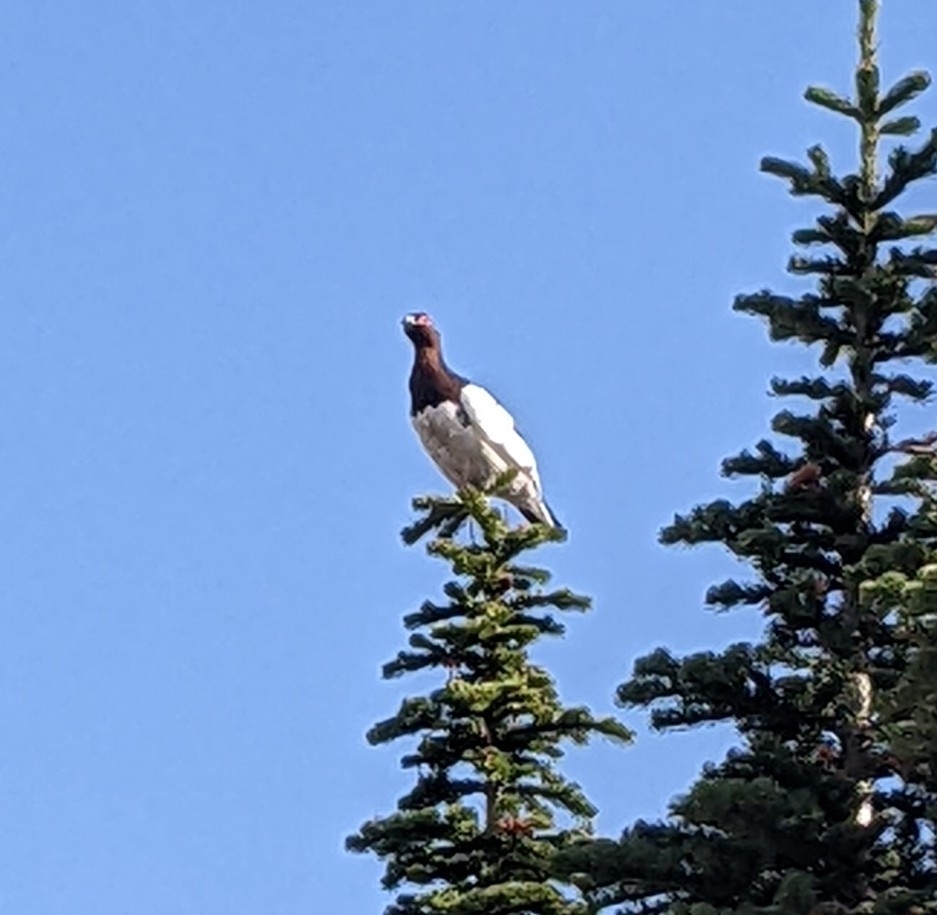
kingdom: Animalia
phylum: Chordata
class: Aves
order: Galliformes
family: Phasianidae
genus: Lagopus
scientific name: Lagopus lagopus
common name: Willow ptarmigan
